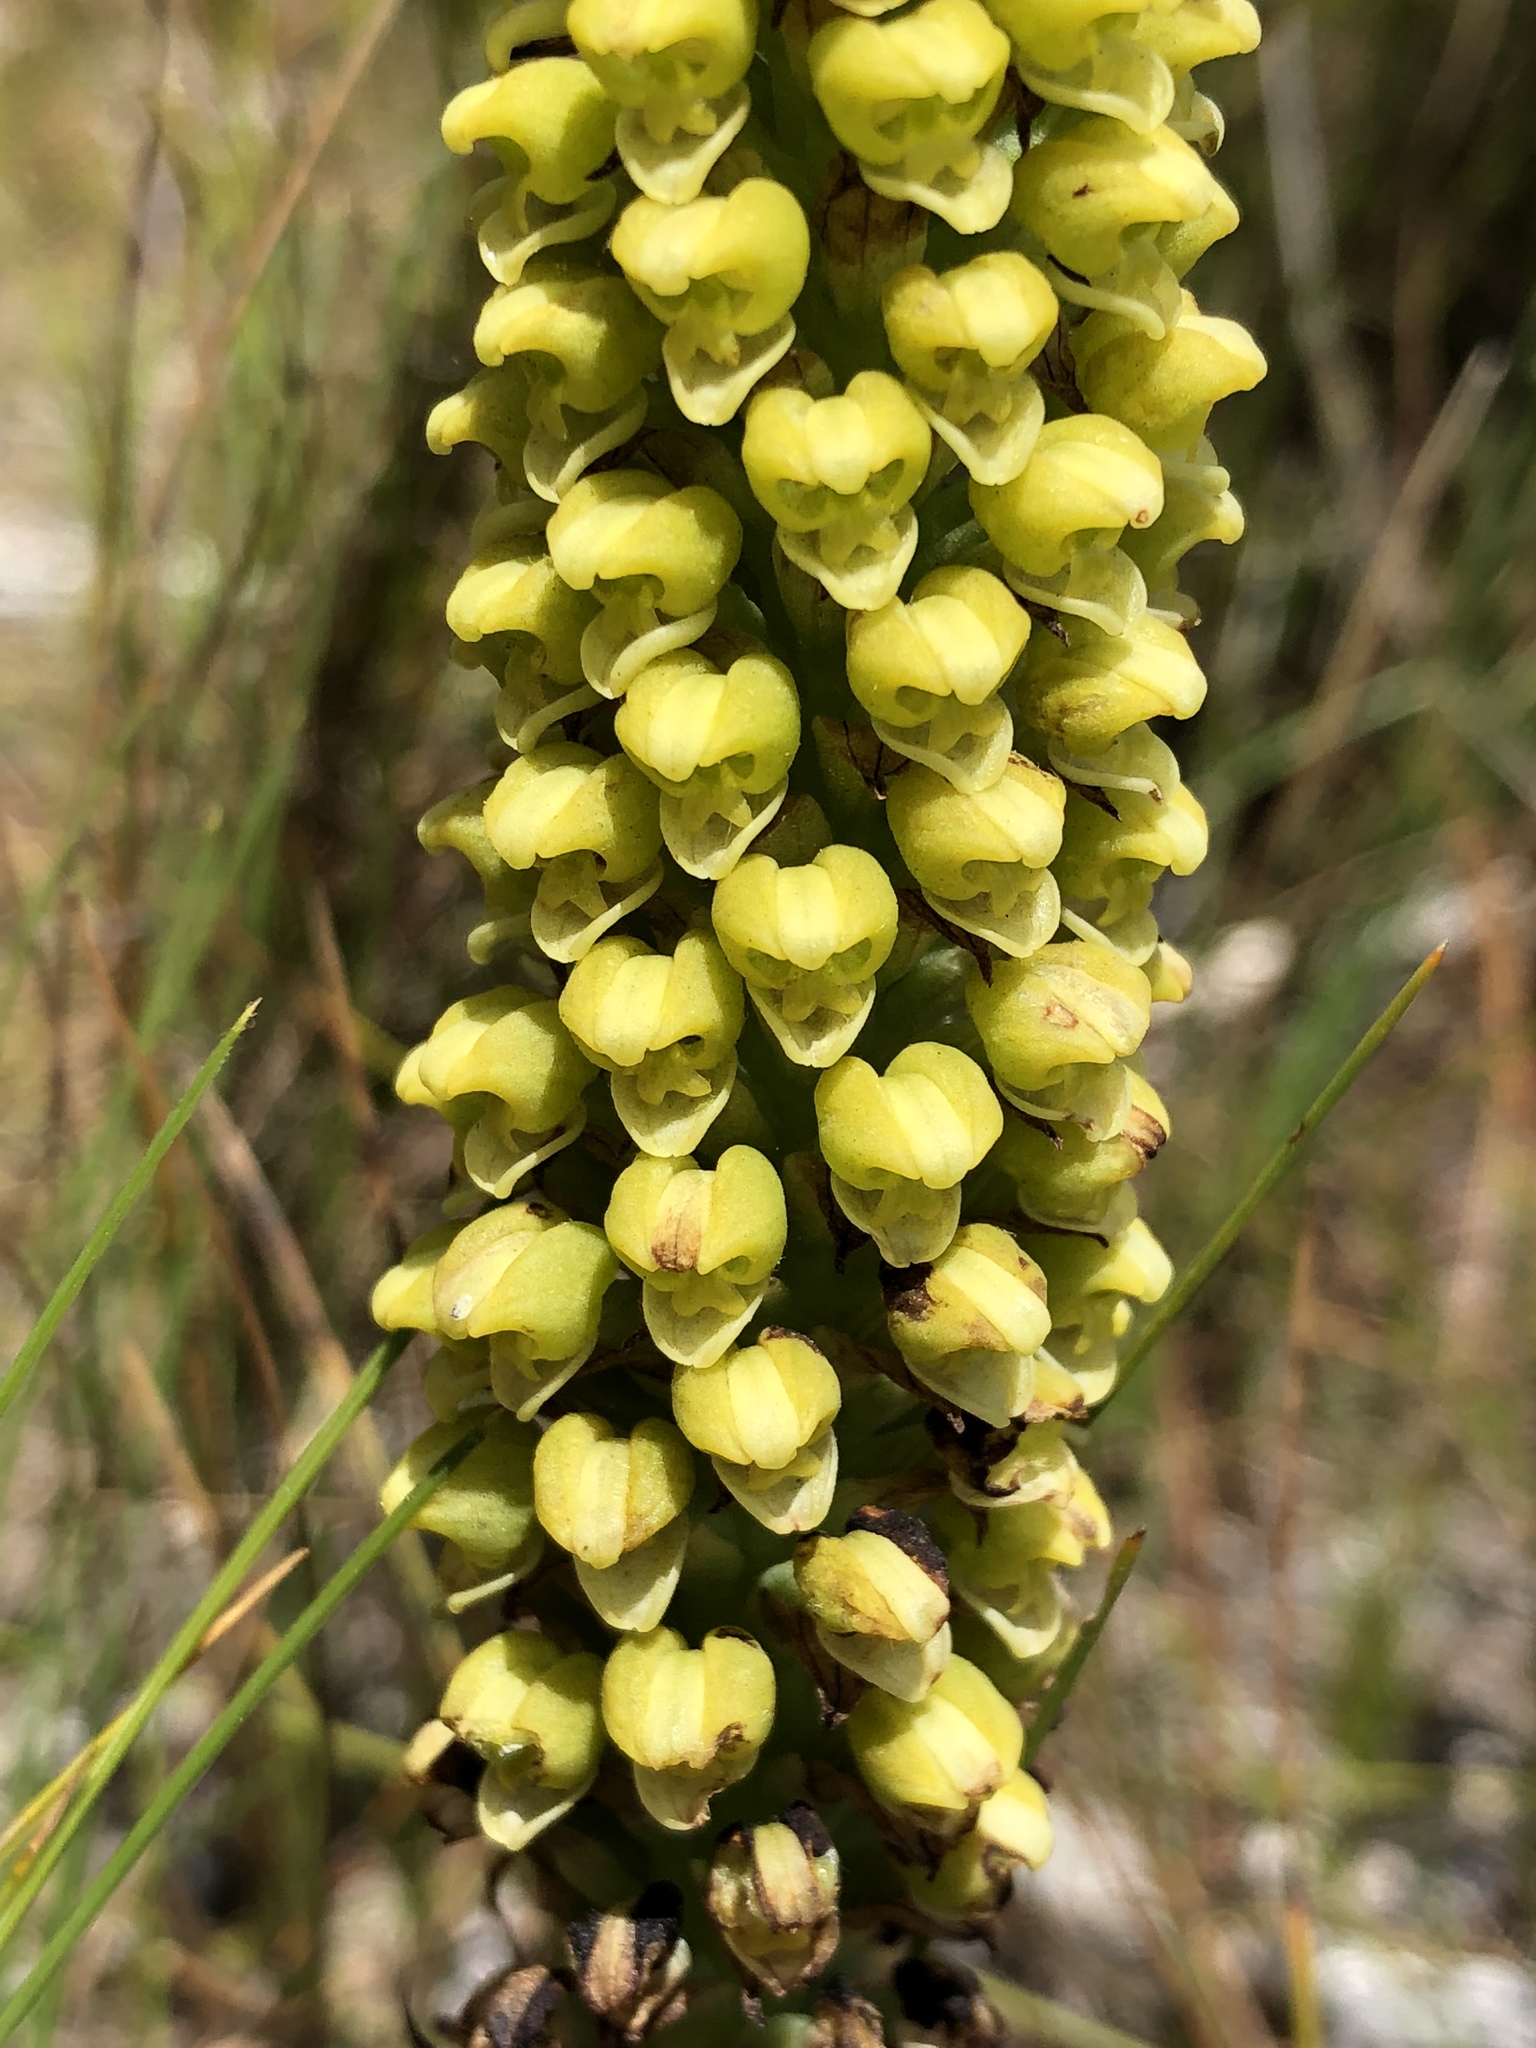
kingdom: Plantae
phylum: Tracheophyta
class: Liliopsida
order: Asparagales
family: Orchidaceae
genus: Corycium
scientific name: Corycium bicolorum
